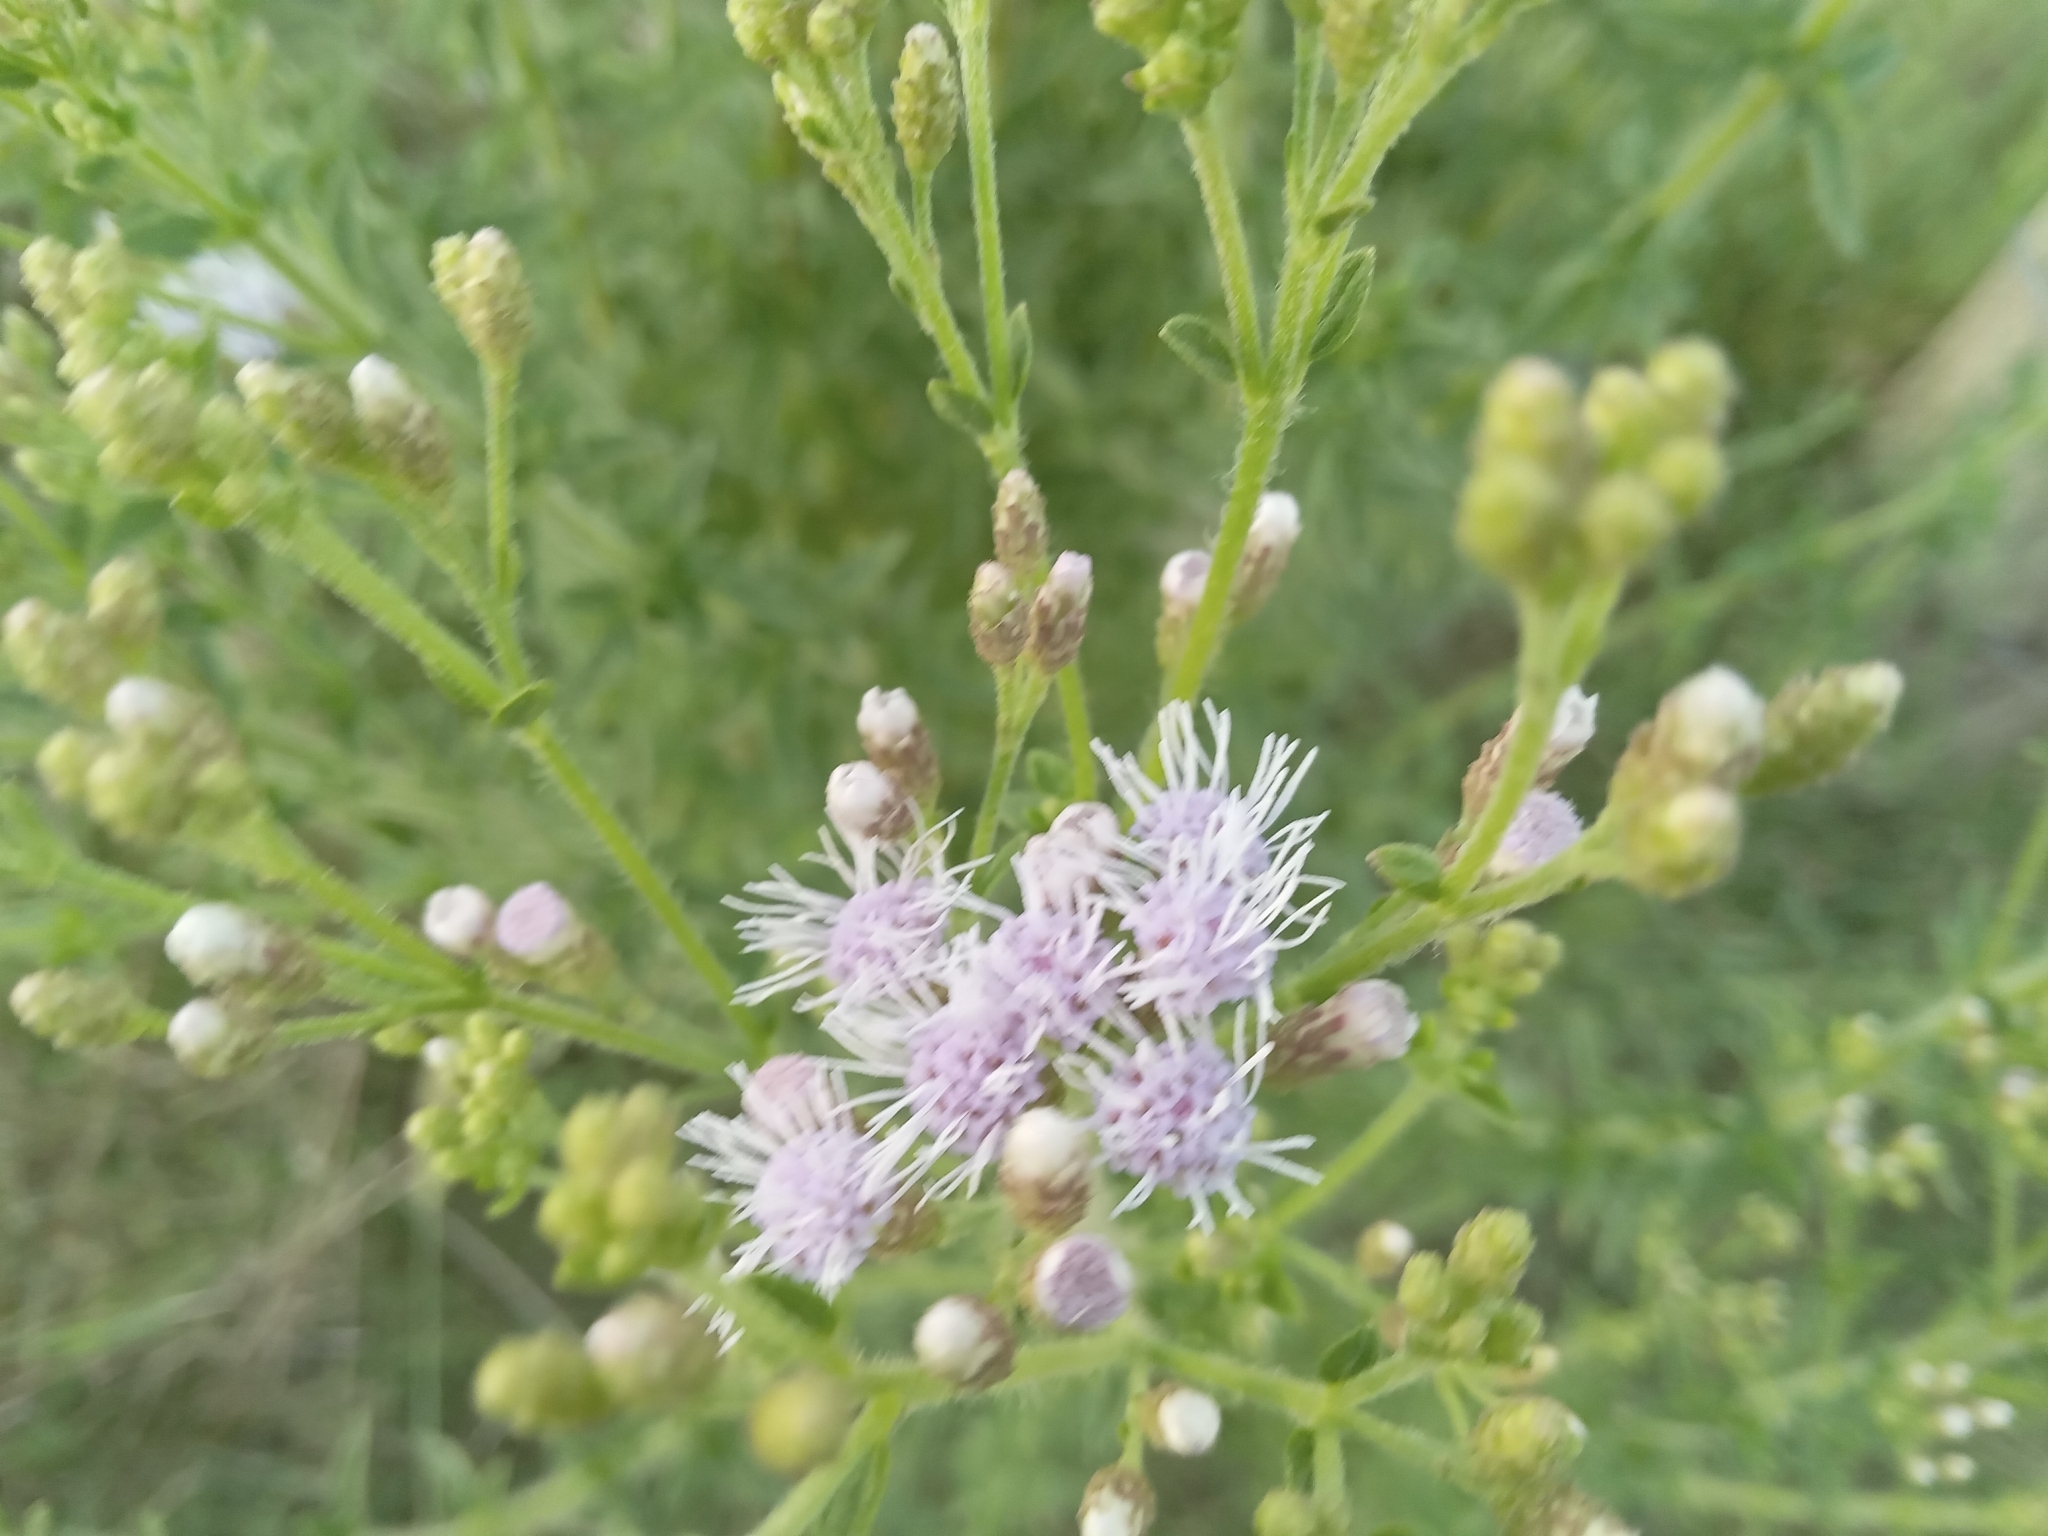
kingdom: Plantae
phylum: Tracheophyta
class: Magnoliopsida
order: Asterales
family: Asteraceae
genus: Chromolaena
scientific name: Chromolaena ivifolia
